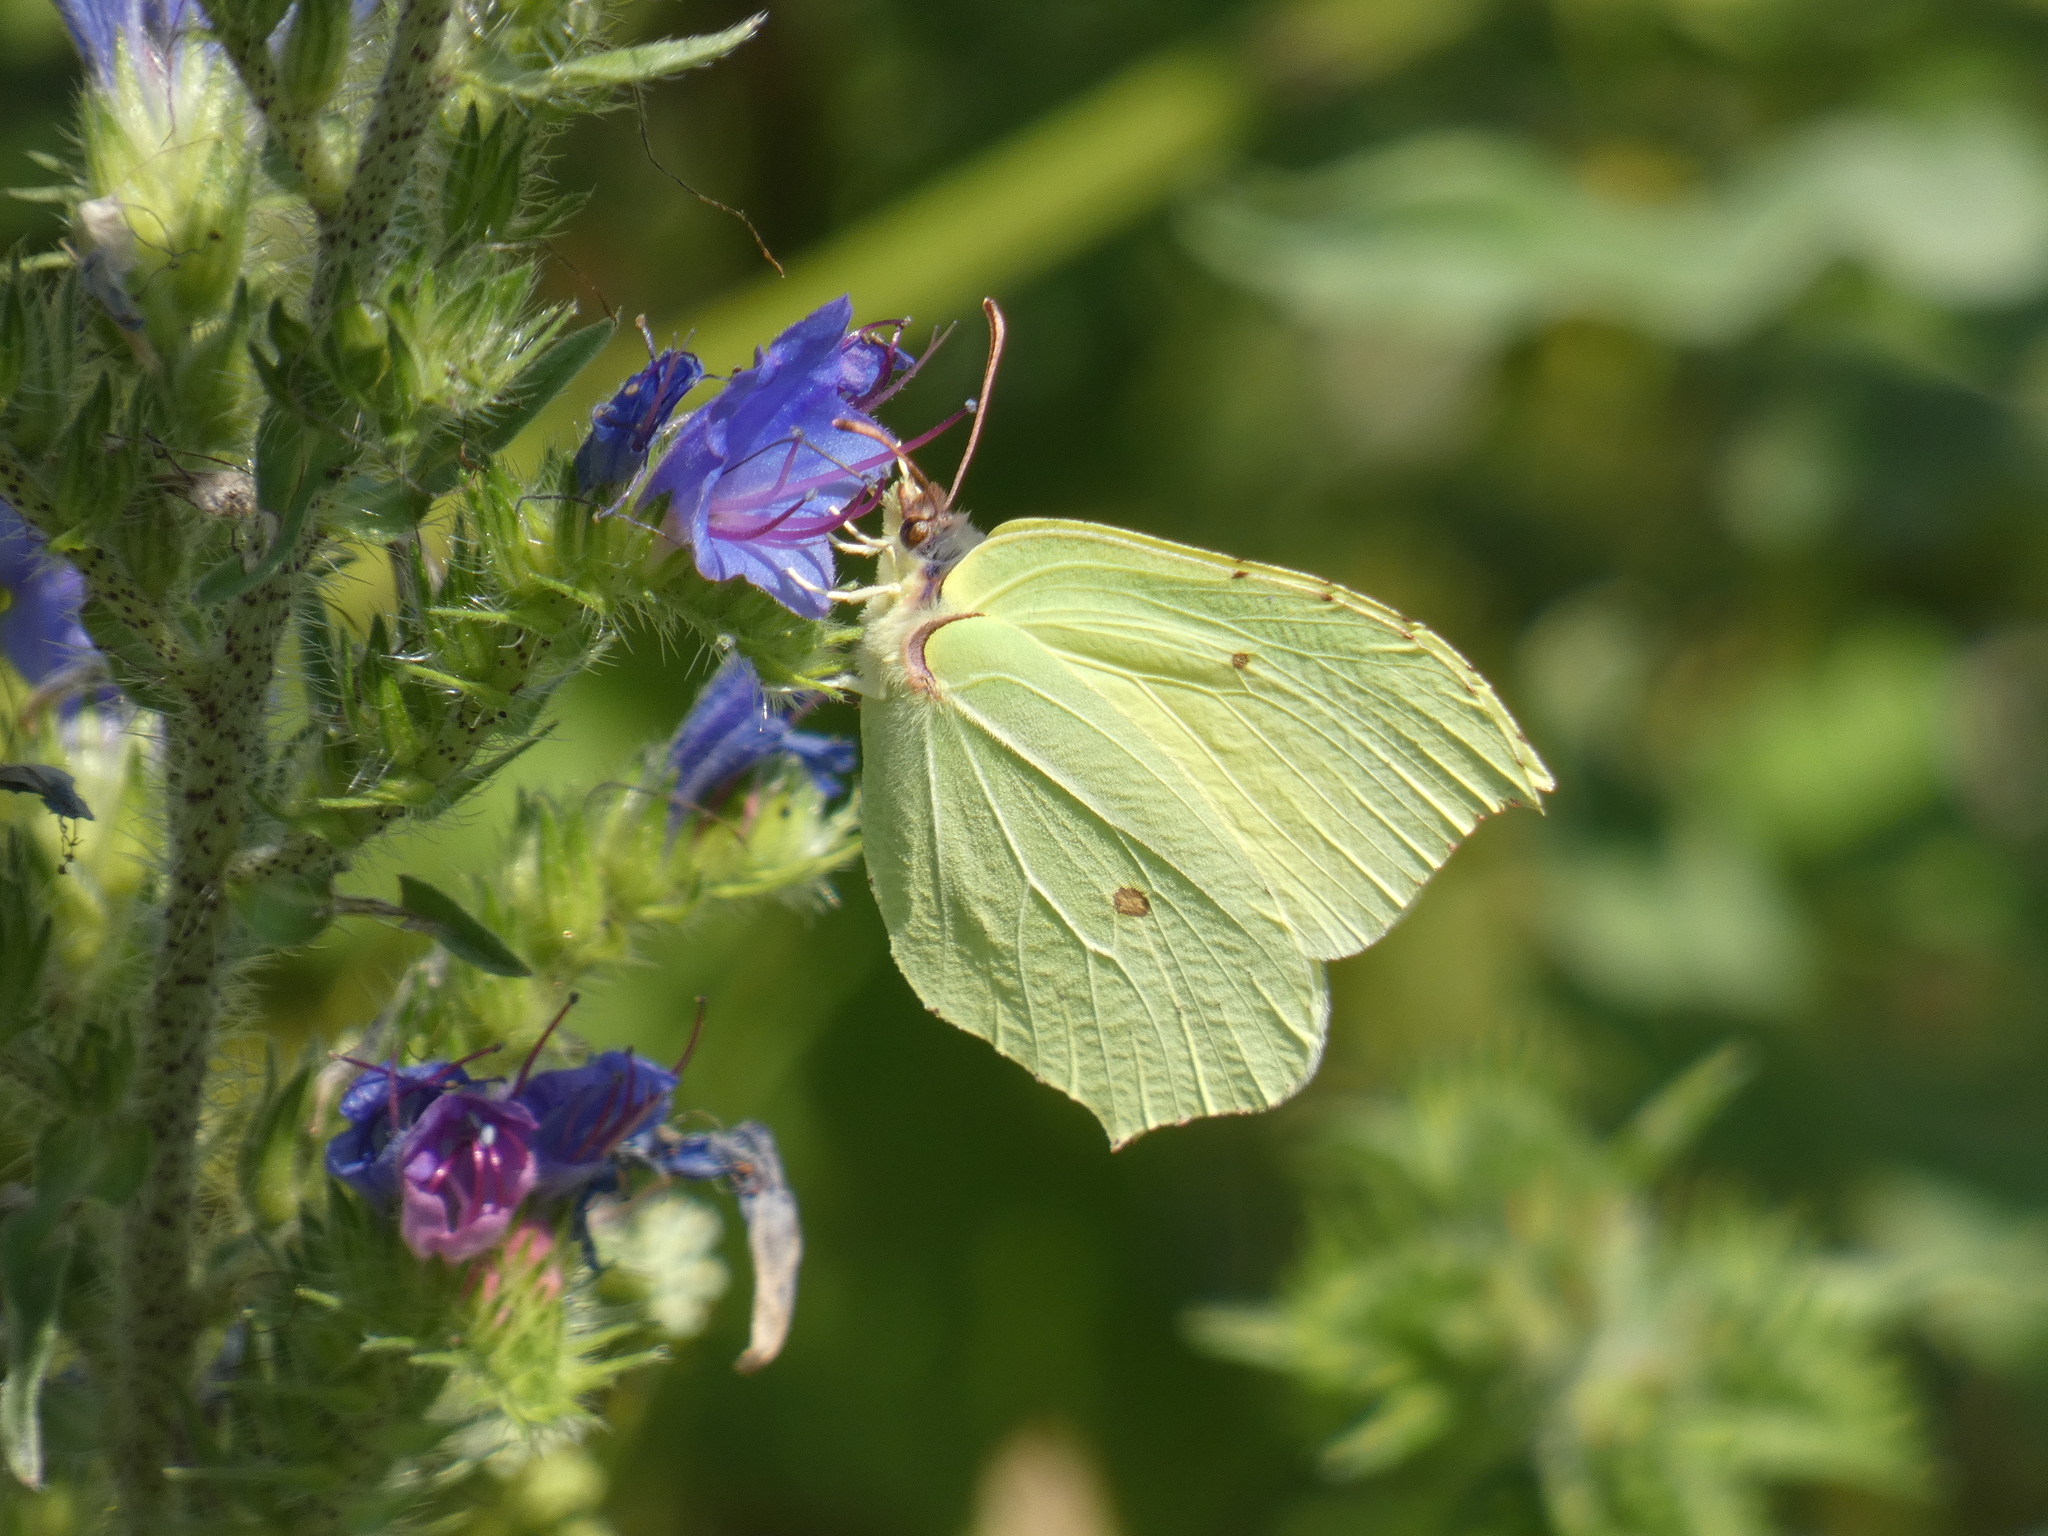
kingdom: Animalia
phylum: Arthropoda
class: Insecta
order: Lepidoptera
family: Pieridae
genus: Gonepteryx
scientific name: Gonepteryx rhamni
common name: Brimstone
